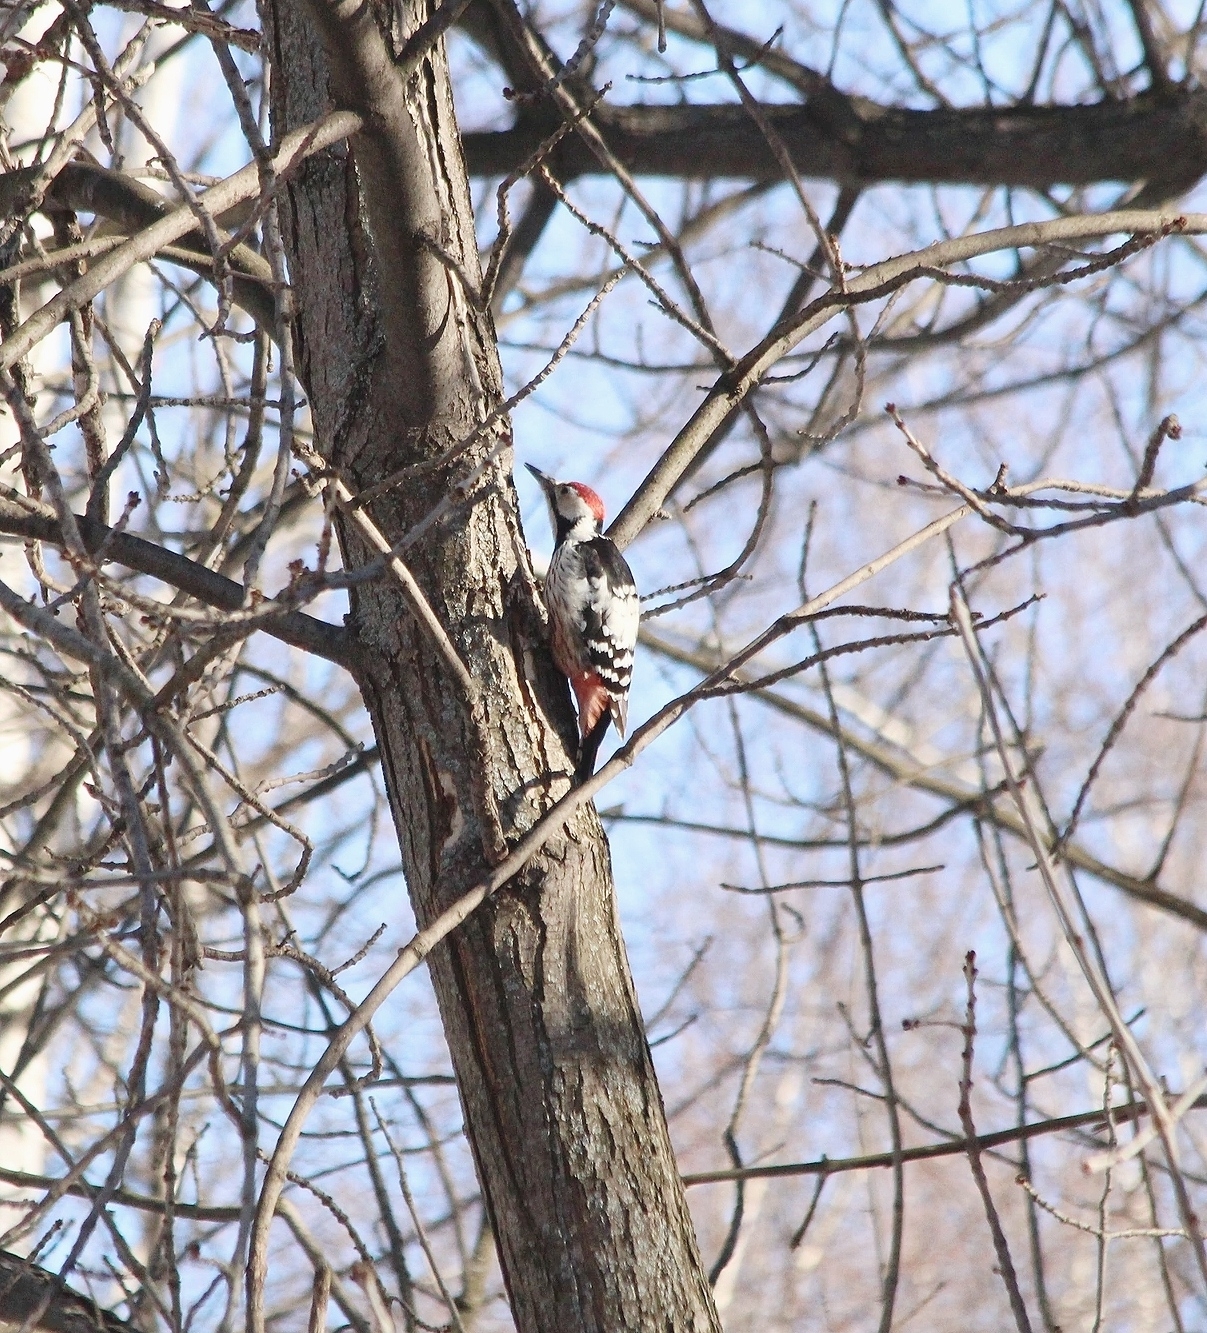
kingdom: Animalia
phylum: Chordata
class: Aves
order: Piciformes
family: Picidae
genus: Dendrocopos
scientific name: Dendrocopos leucotos
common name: White-backed woodpecker
